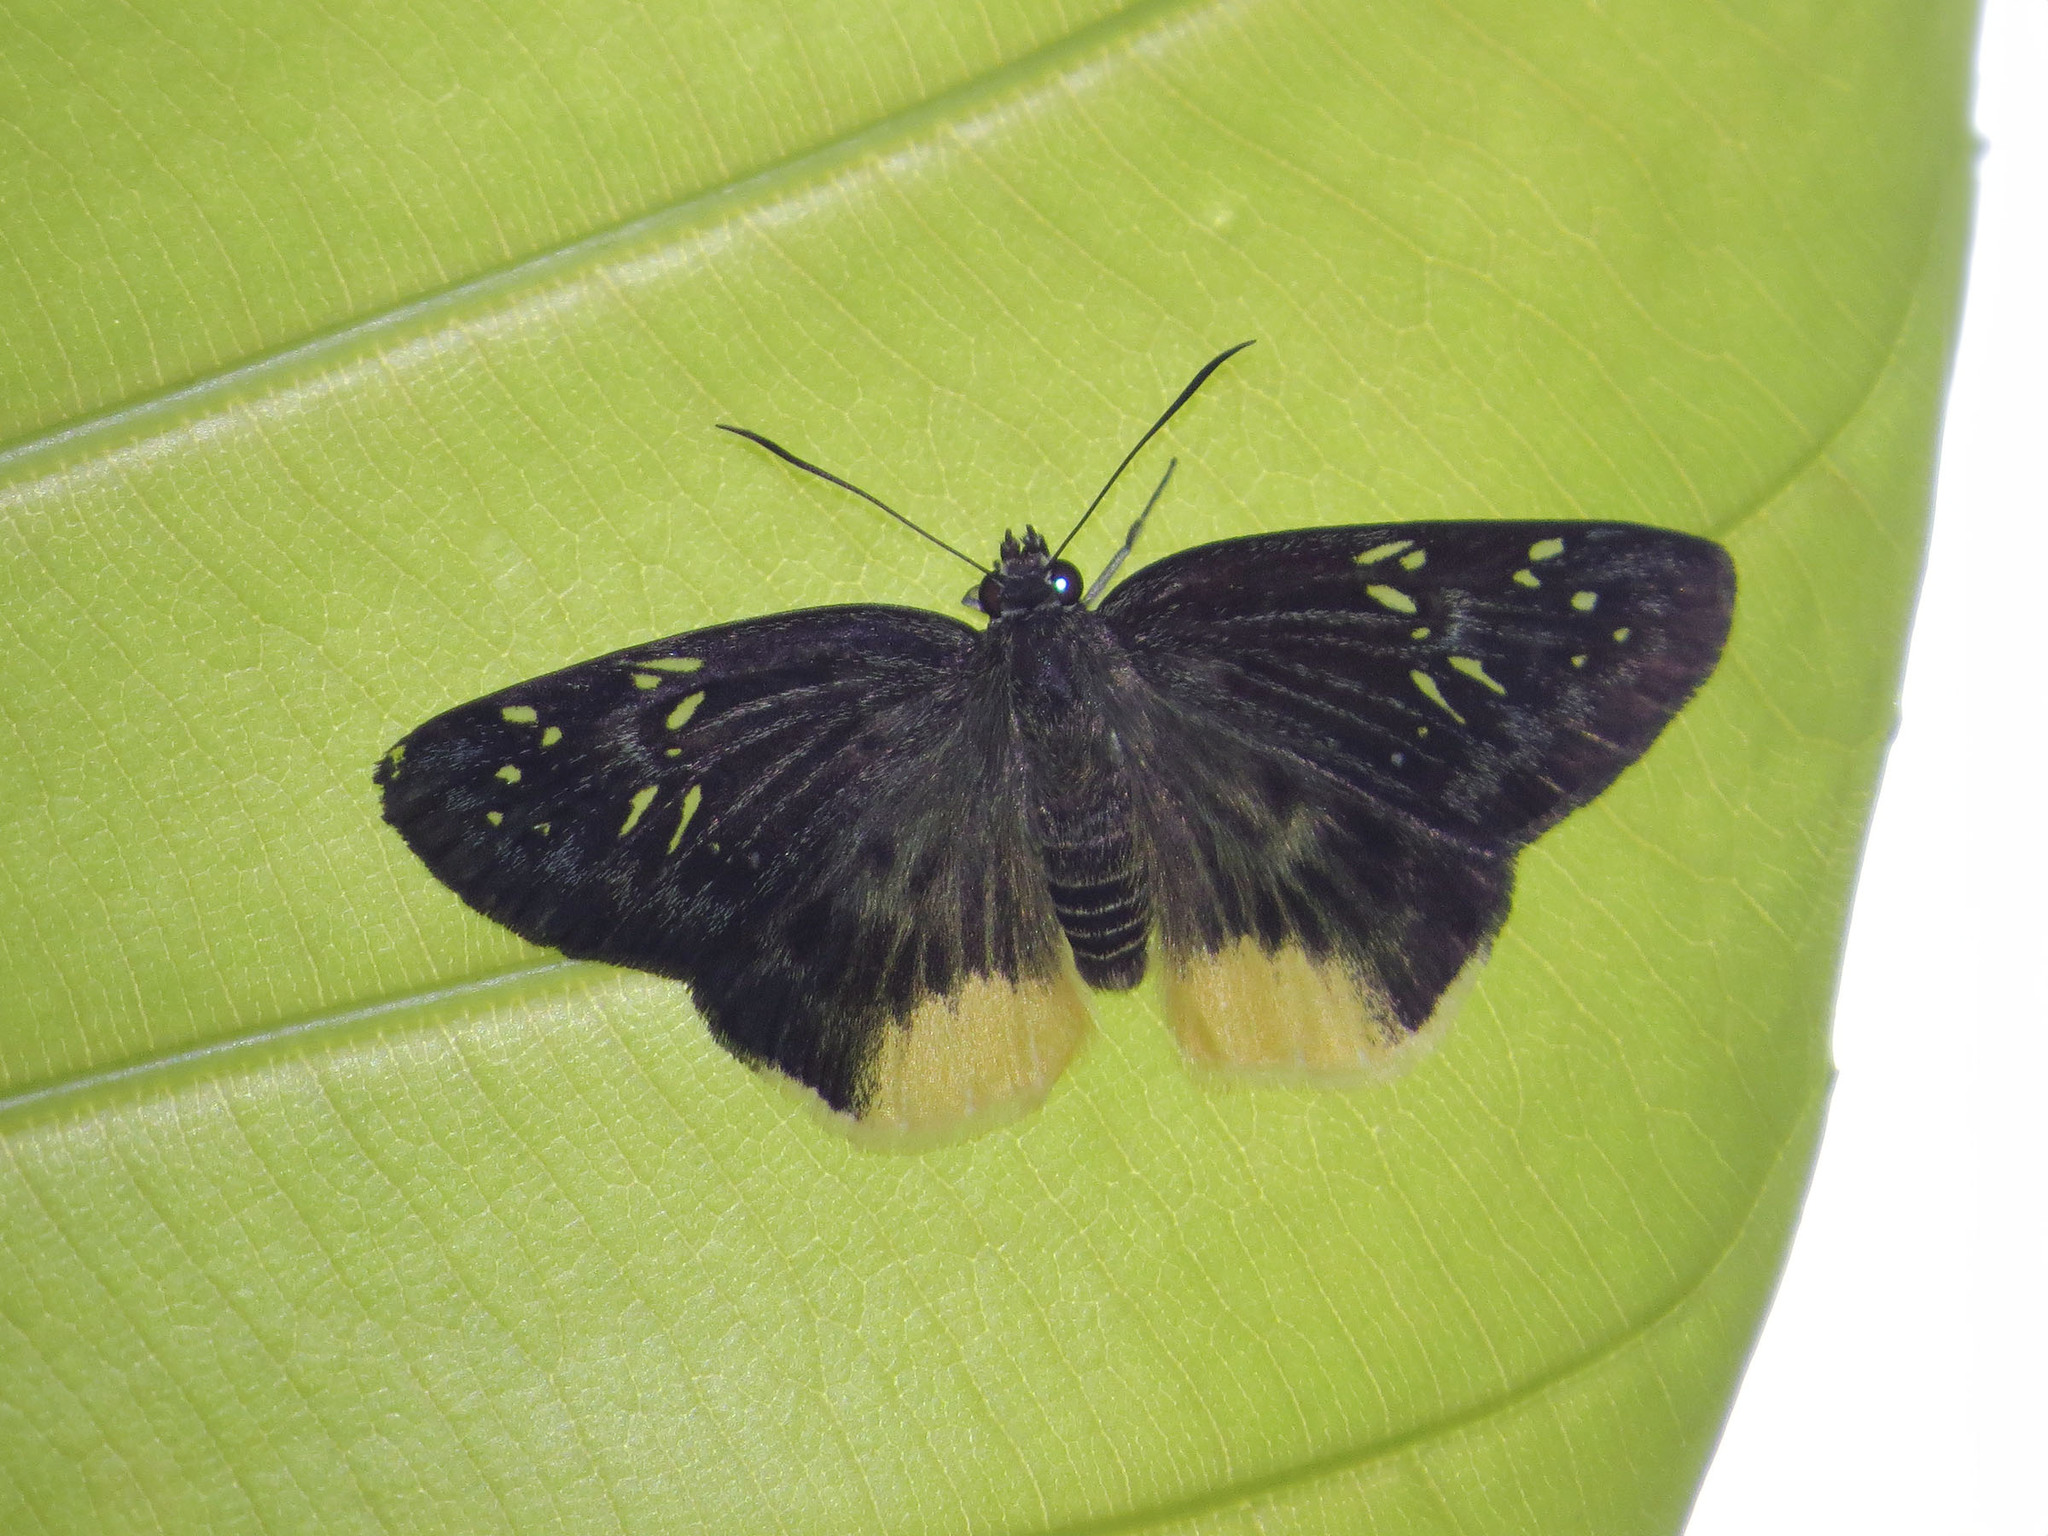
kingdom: Animalia
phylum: Arthropoda
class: Insecta
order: Lepidoptera
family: Hesperiidae
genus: Mooreana
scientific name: Mooreana trichoneura
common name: Yellow flat
